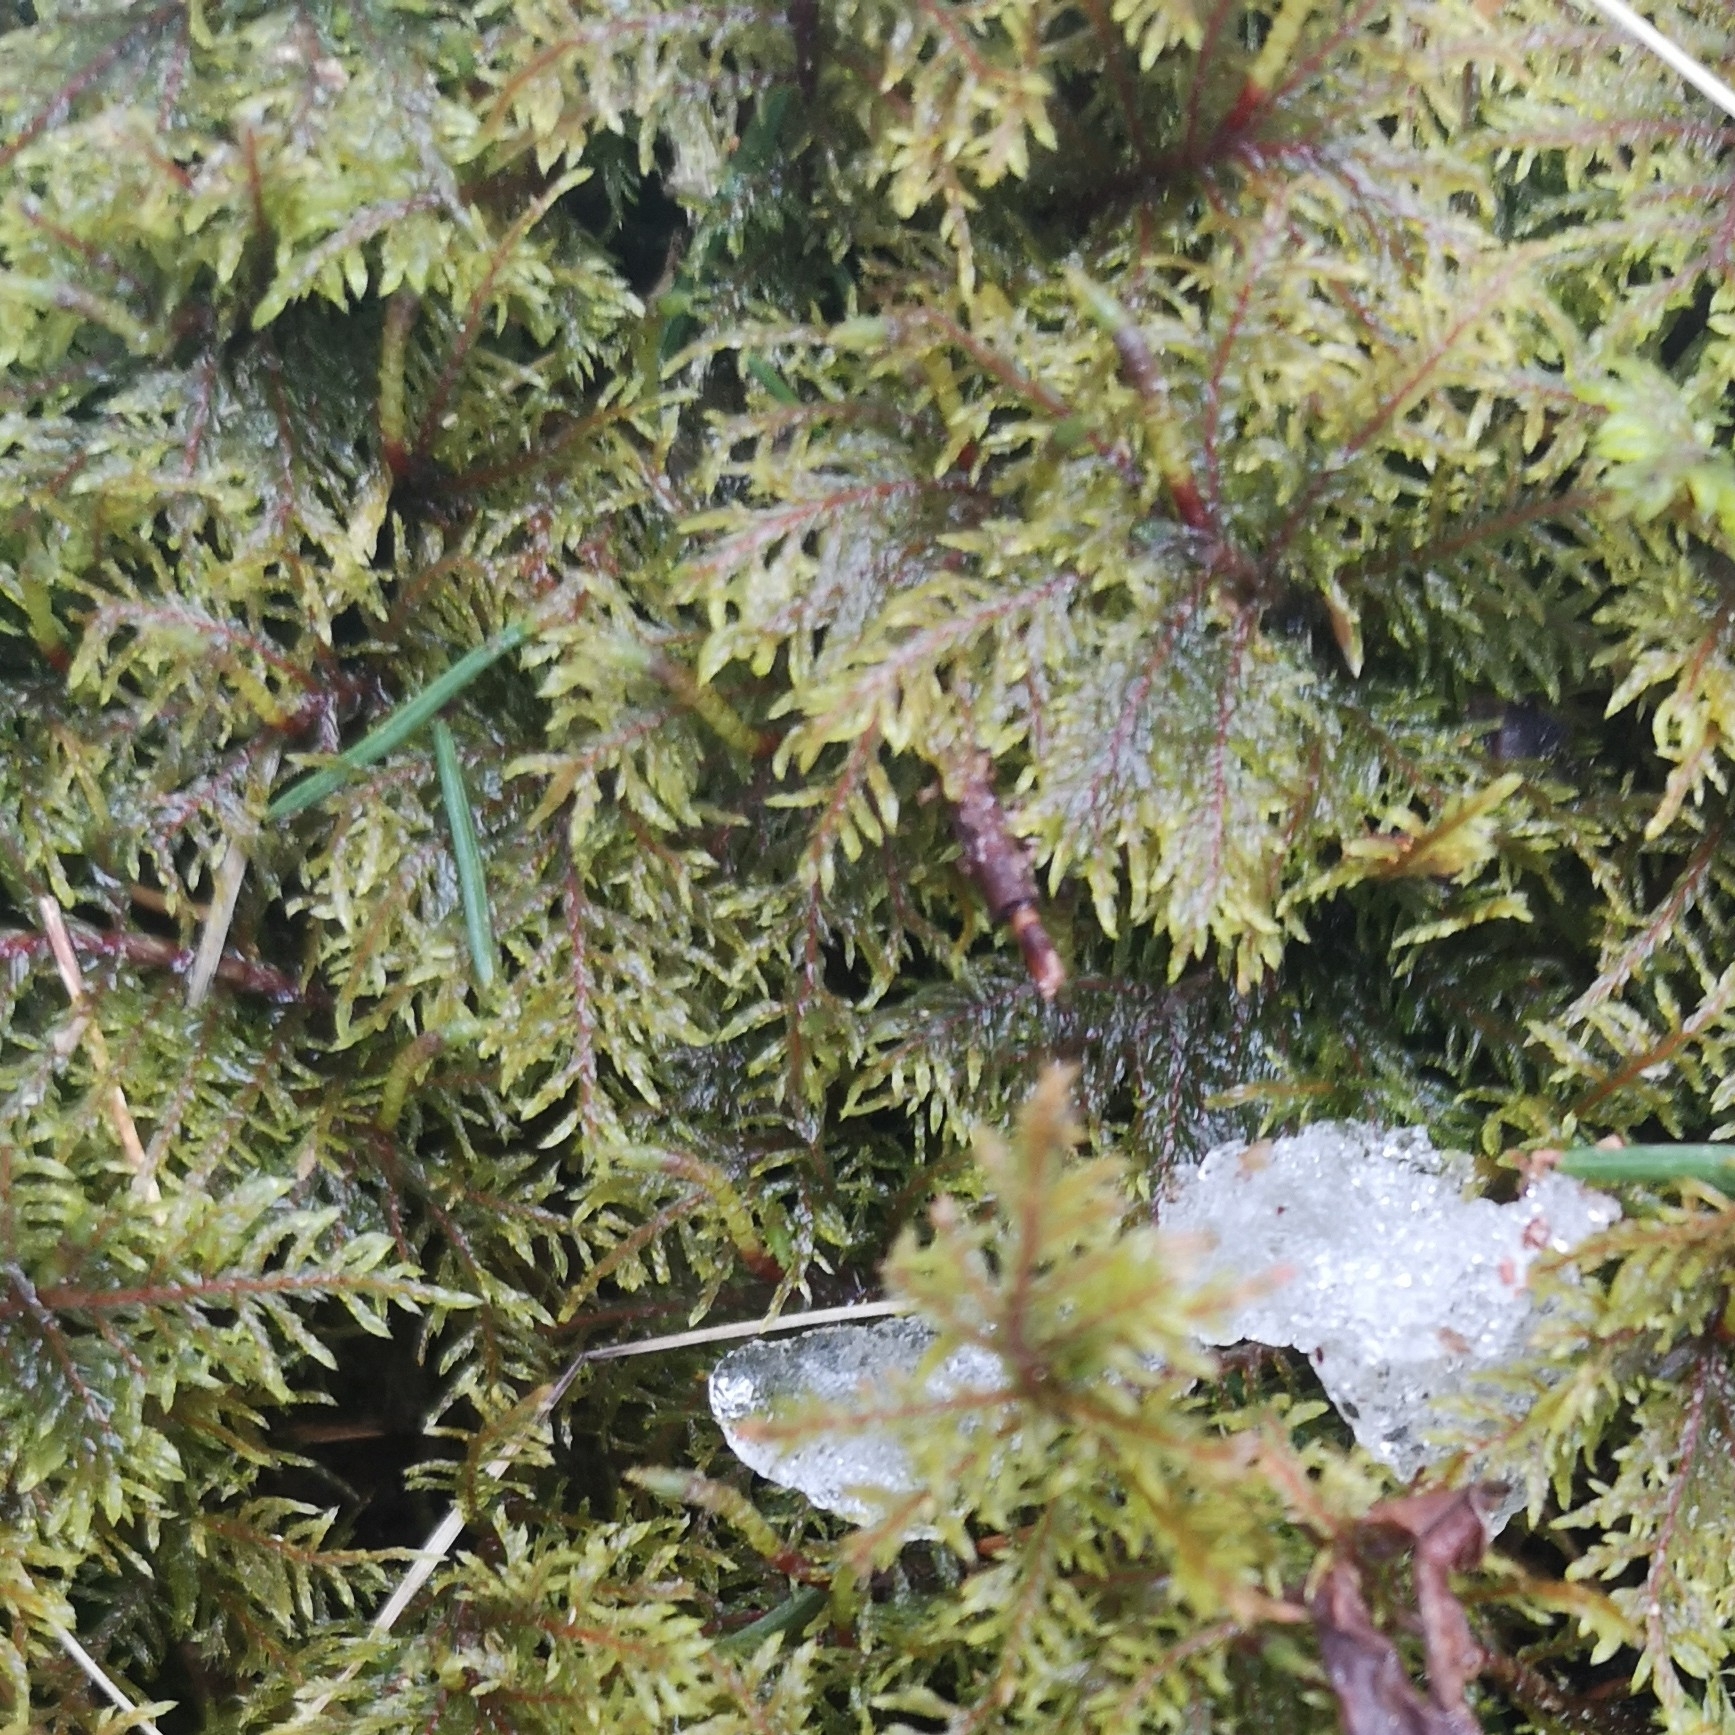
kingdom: Plantae
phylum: Bryophyta
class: Bryopsida
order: Hypnales
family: Hylocomiaceae
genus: Hylocomium
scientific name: Hylocomium splendens
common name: Stairstep moss
